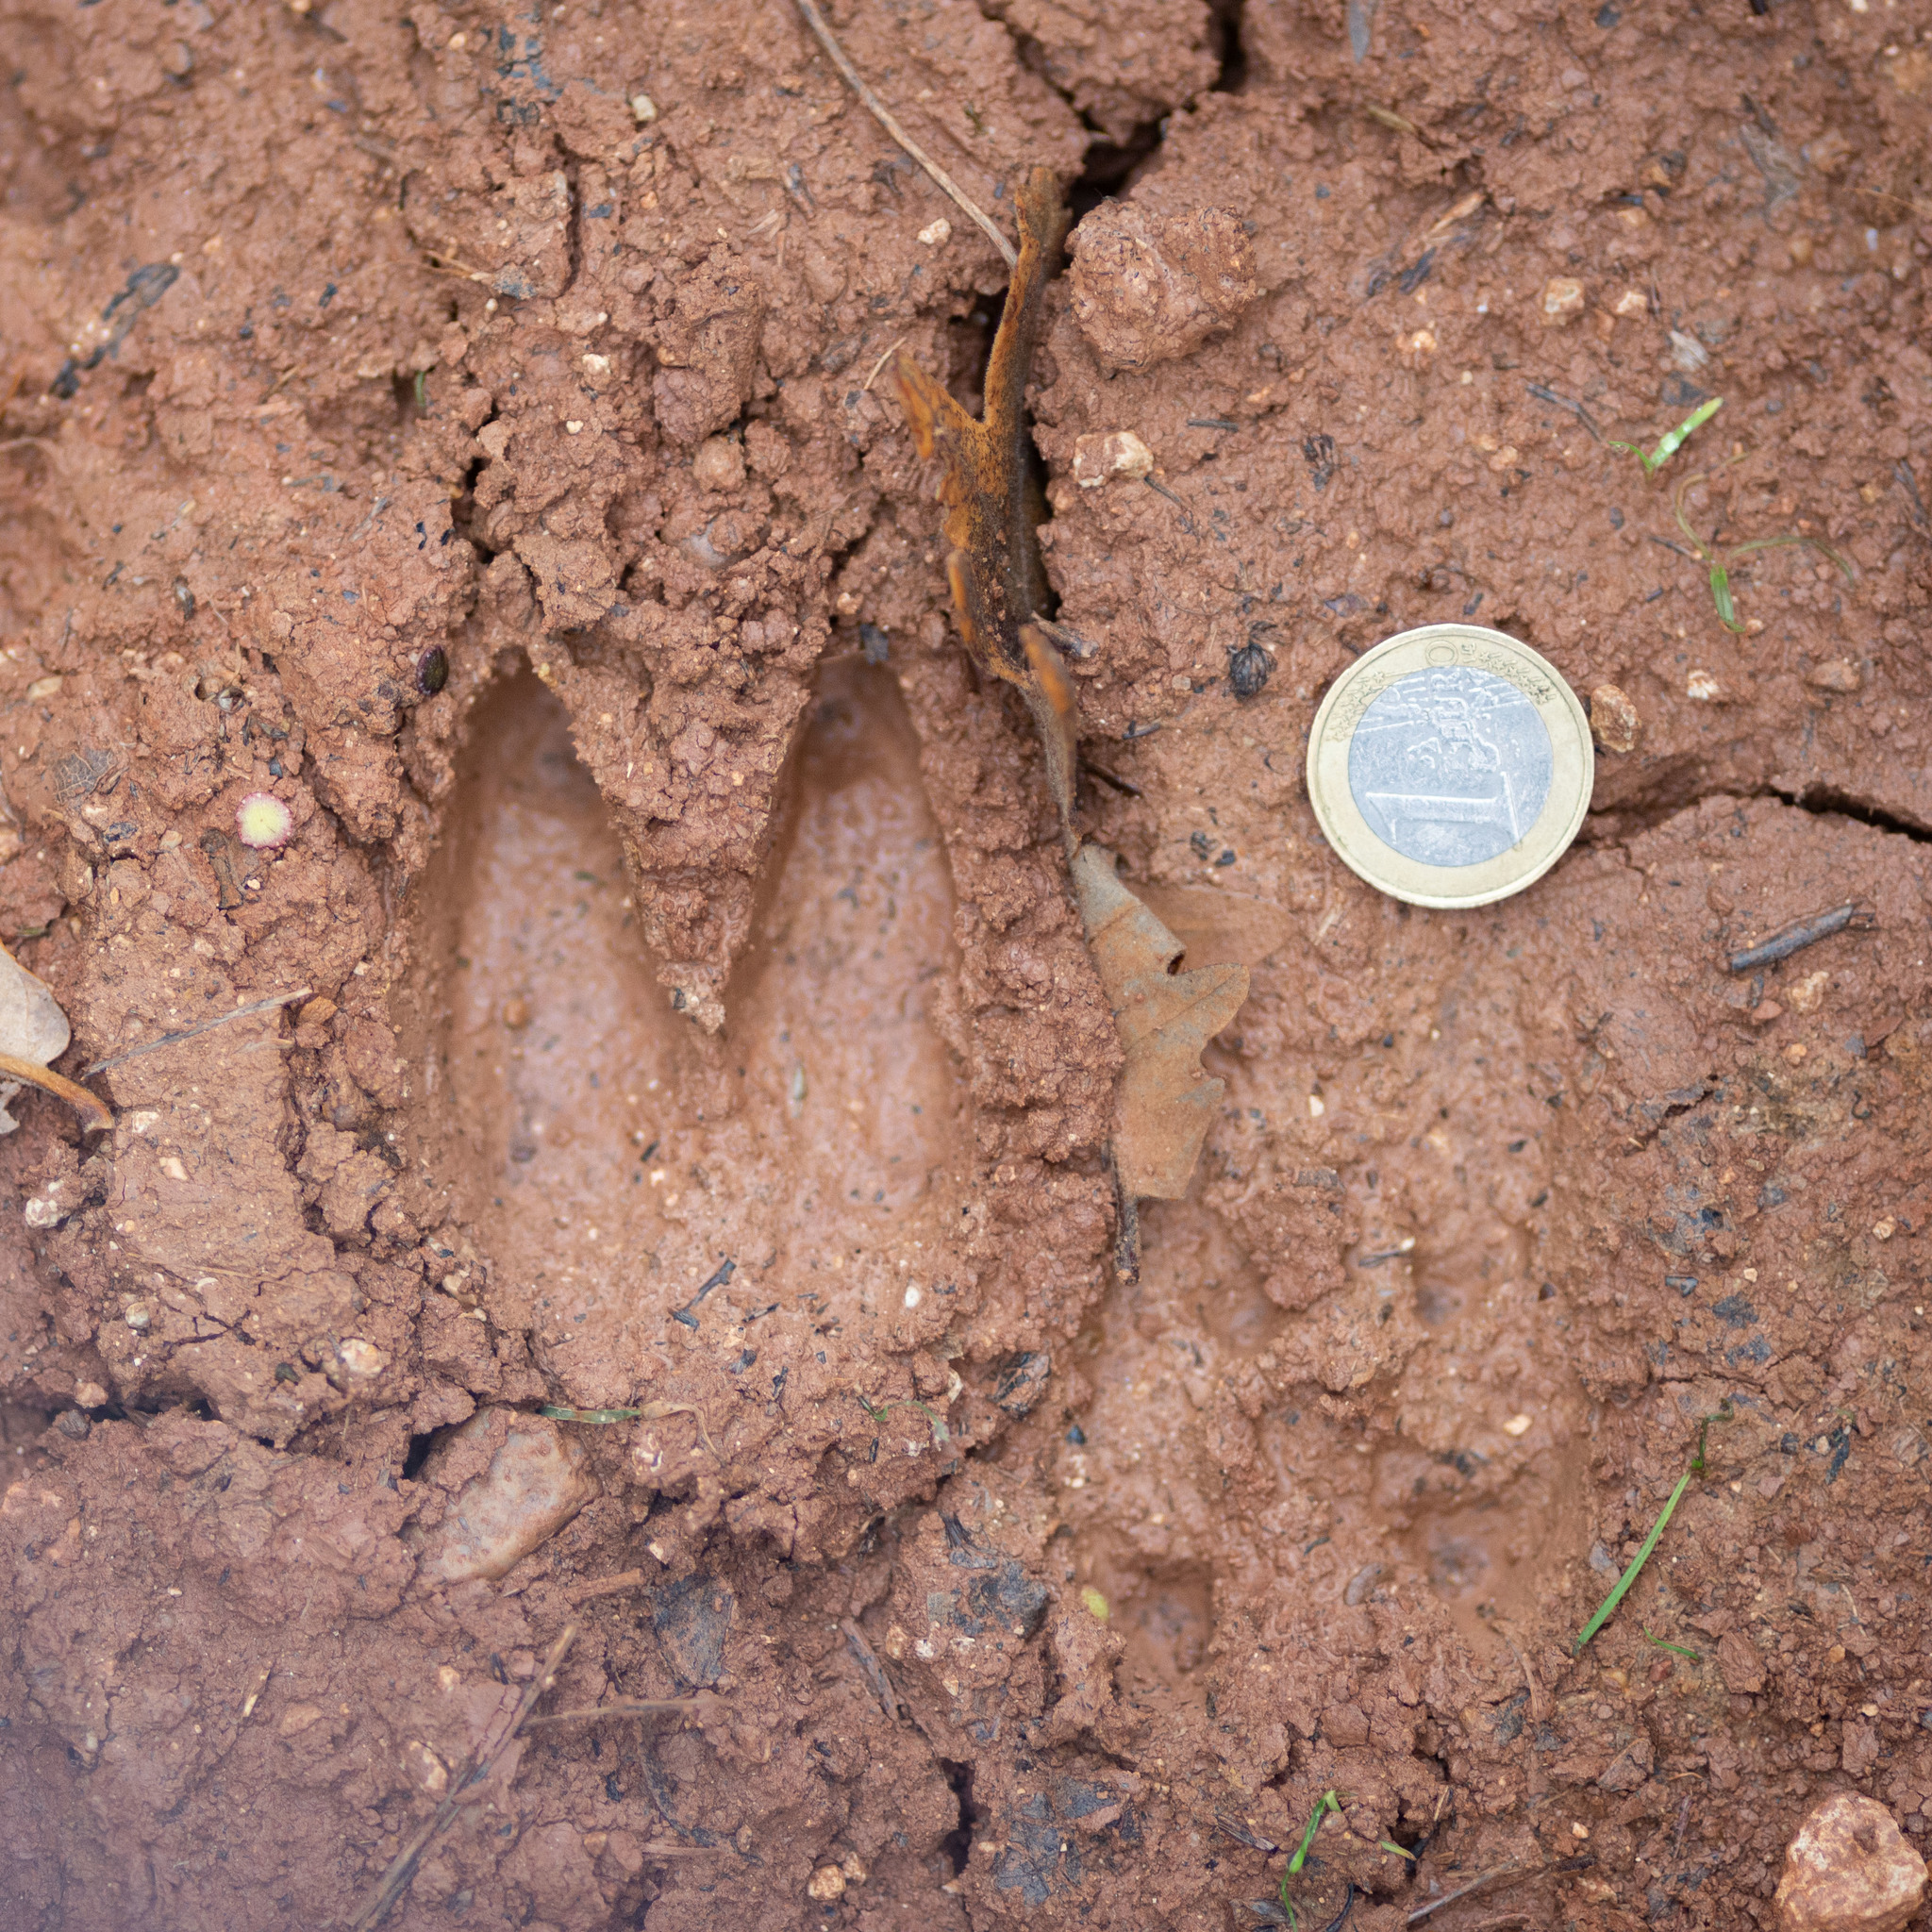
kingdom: Animalia
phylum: Chordata
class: Mammalia
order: Artiodactyla
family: Cervidae
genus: Capreolus
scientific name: Capreolus capreolus
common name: Western roe deer
